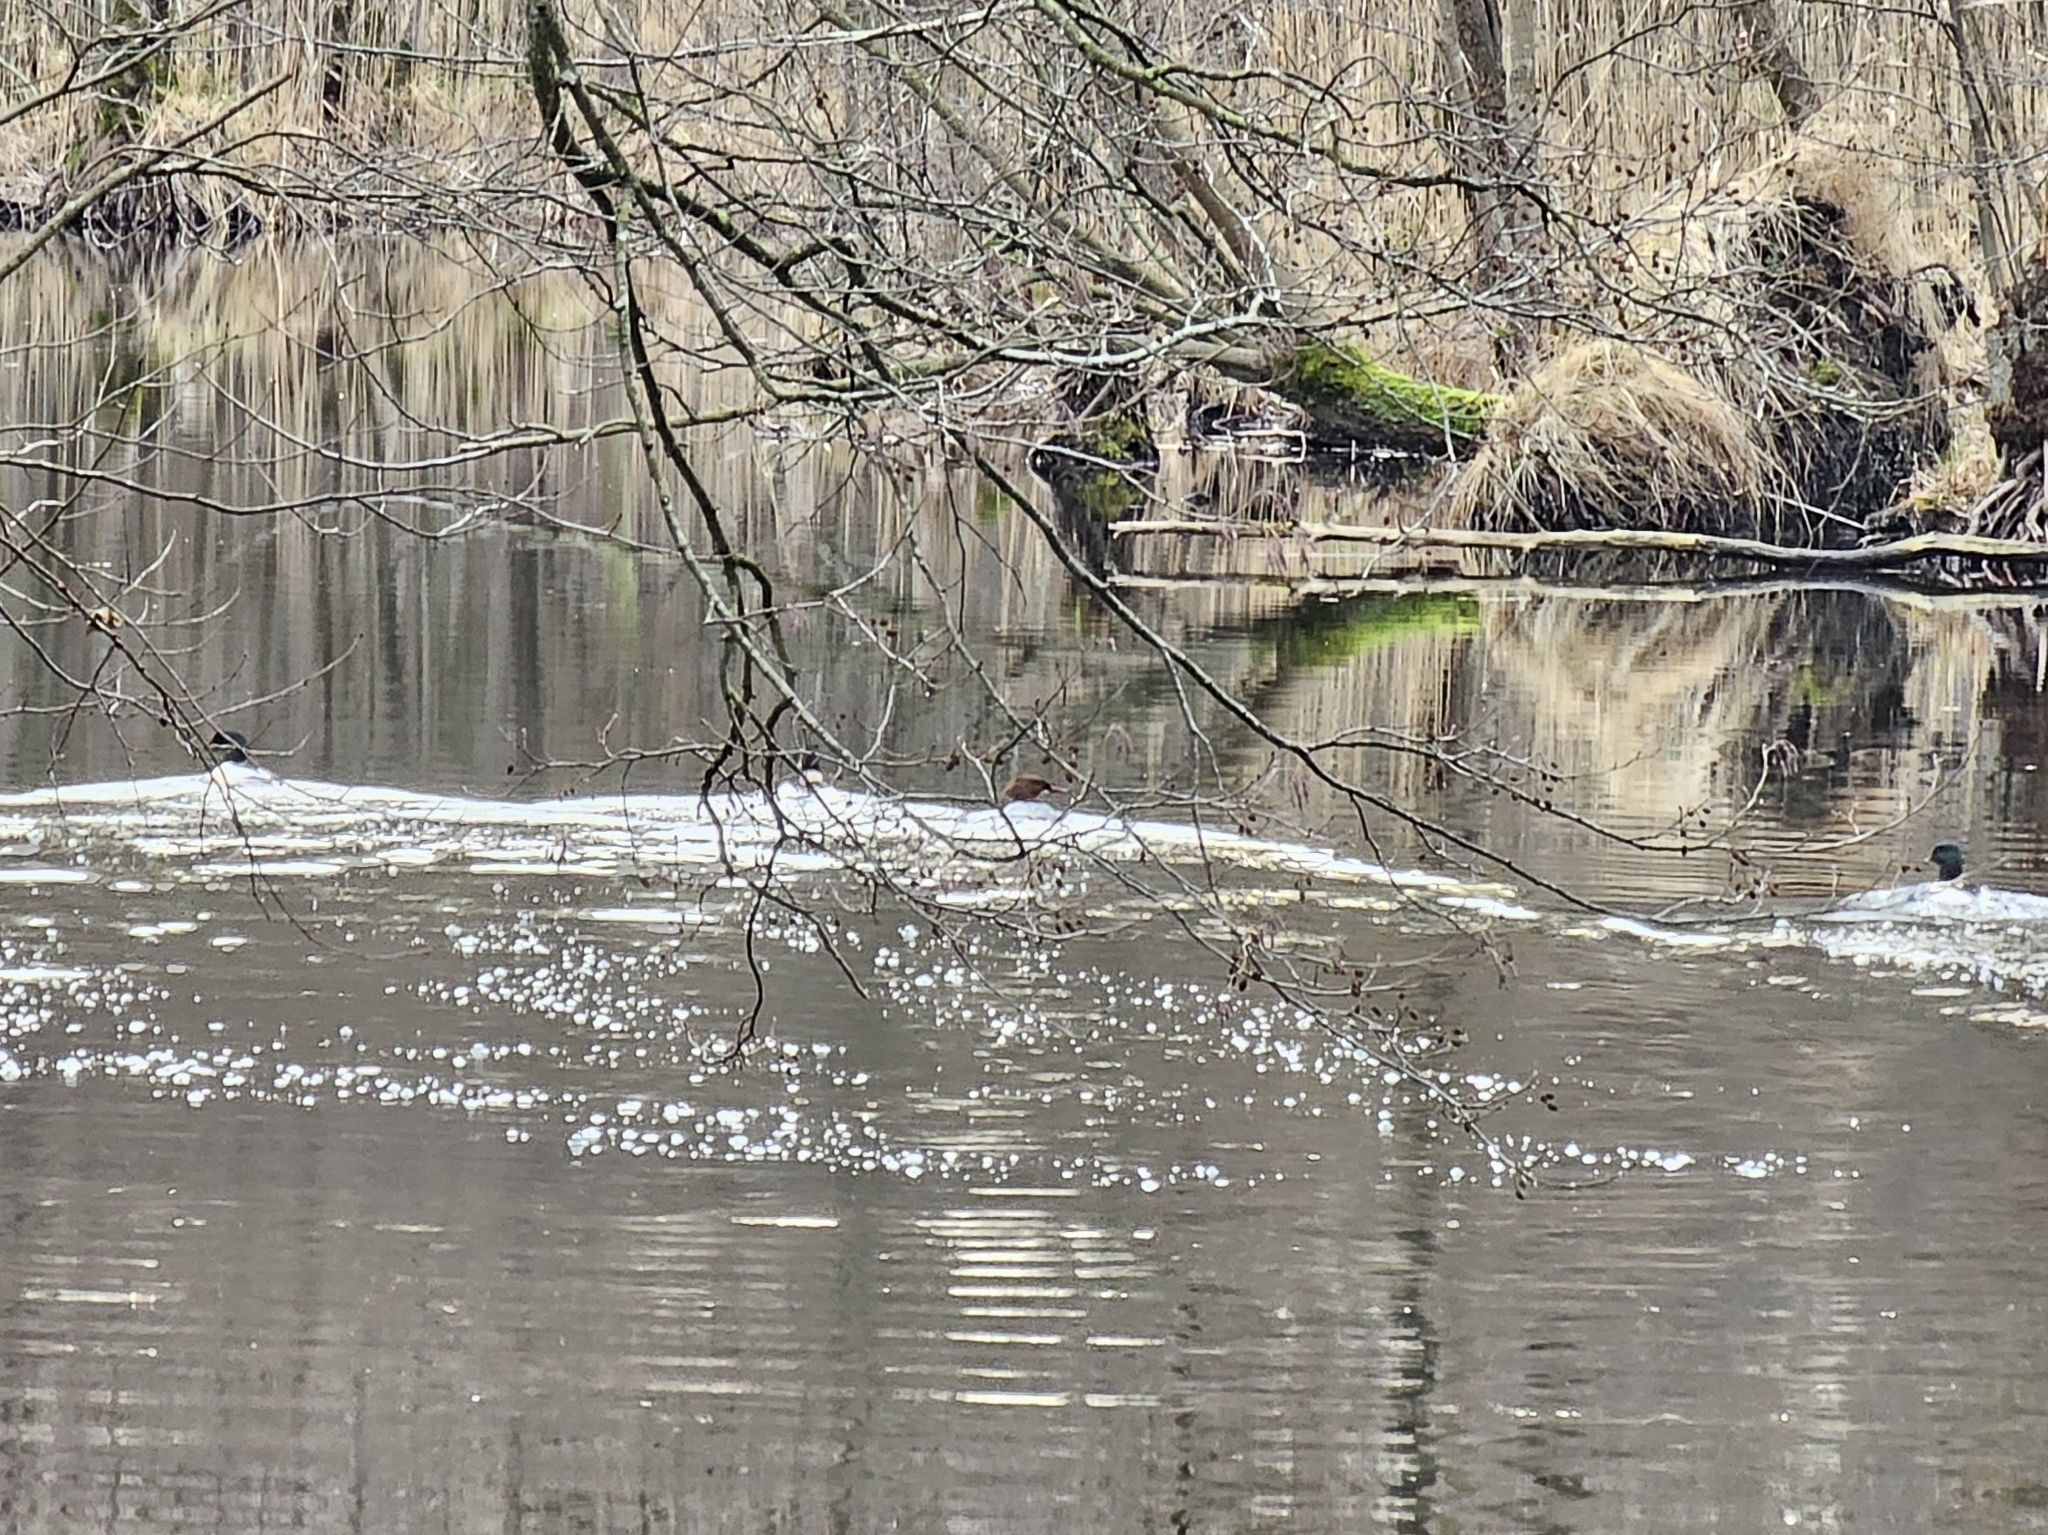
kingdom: Animalia
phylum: Chordata
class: Aves
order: Anseriformes
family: Anatidae
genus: Mergus
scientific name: Mergus merganser
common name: Common merganser
